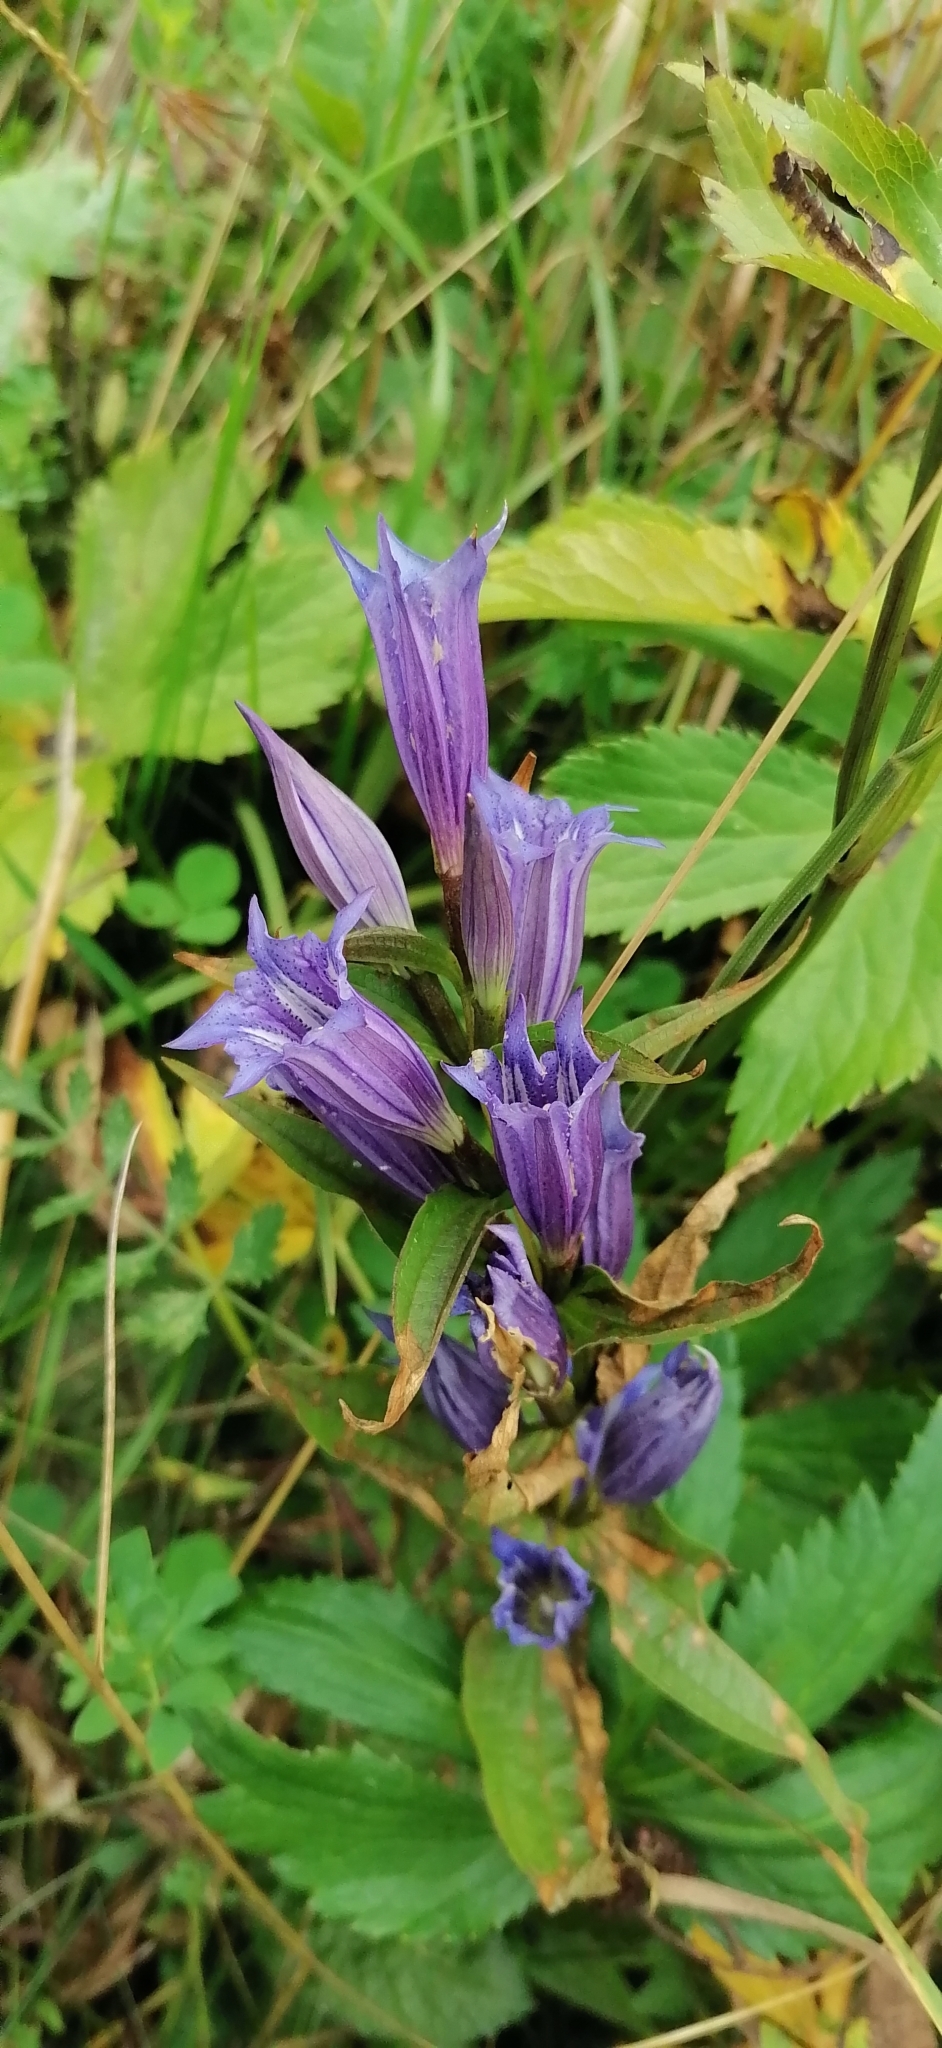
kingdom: Plantae
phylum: Tracheophyta
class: Magnoliopsida
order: Gentianales
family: Gentianaceae
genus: Gentiana
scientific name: Gentiana asclepiadea
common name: Willow gentian
